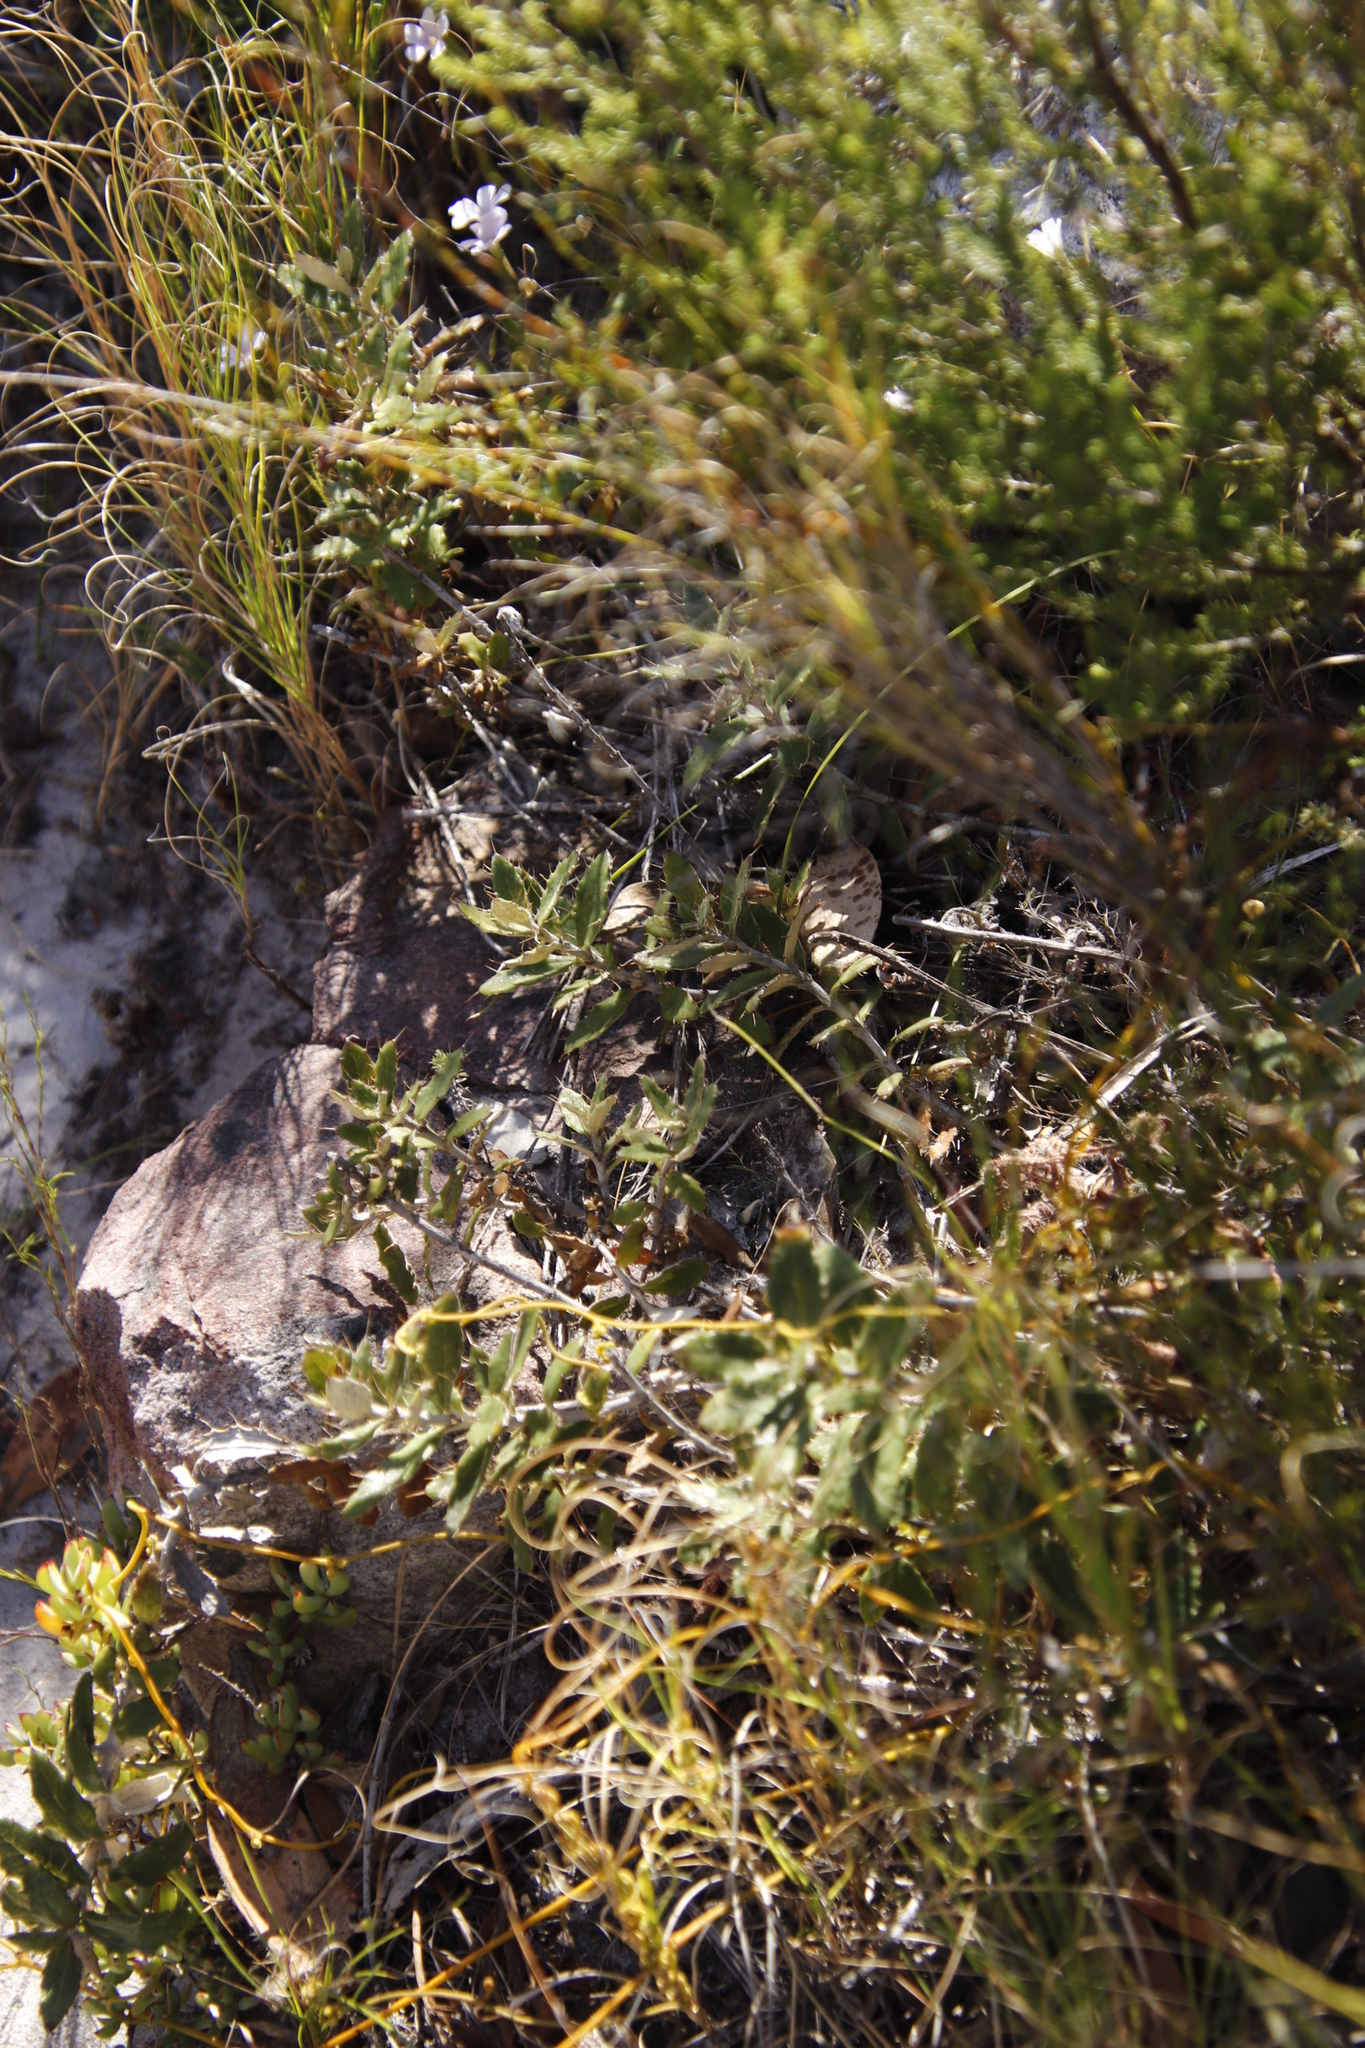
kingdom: Plantae
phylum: Tracheophyta
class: Magnoliopsida
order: Asterales
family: Asteraceae
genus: Berkheya
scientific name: Berkheya barbata
